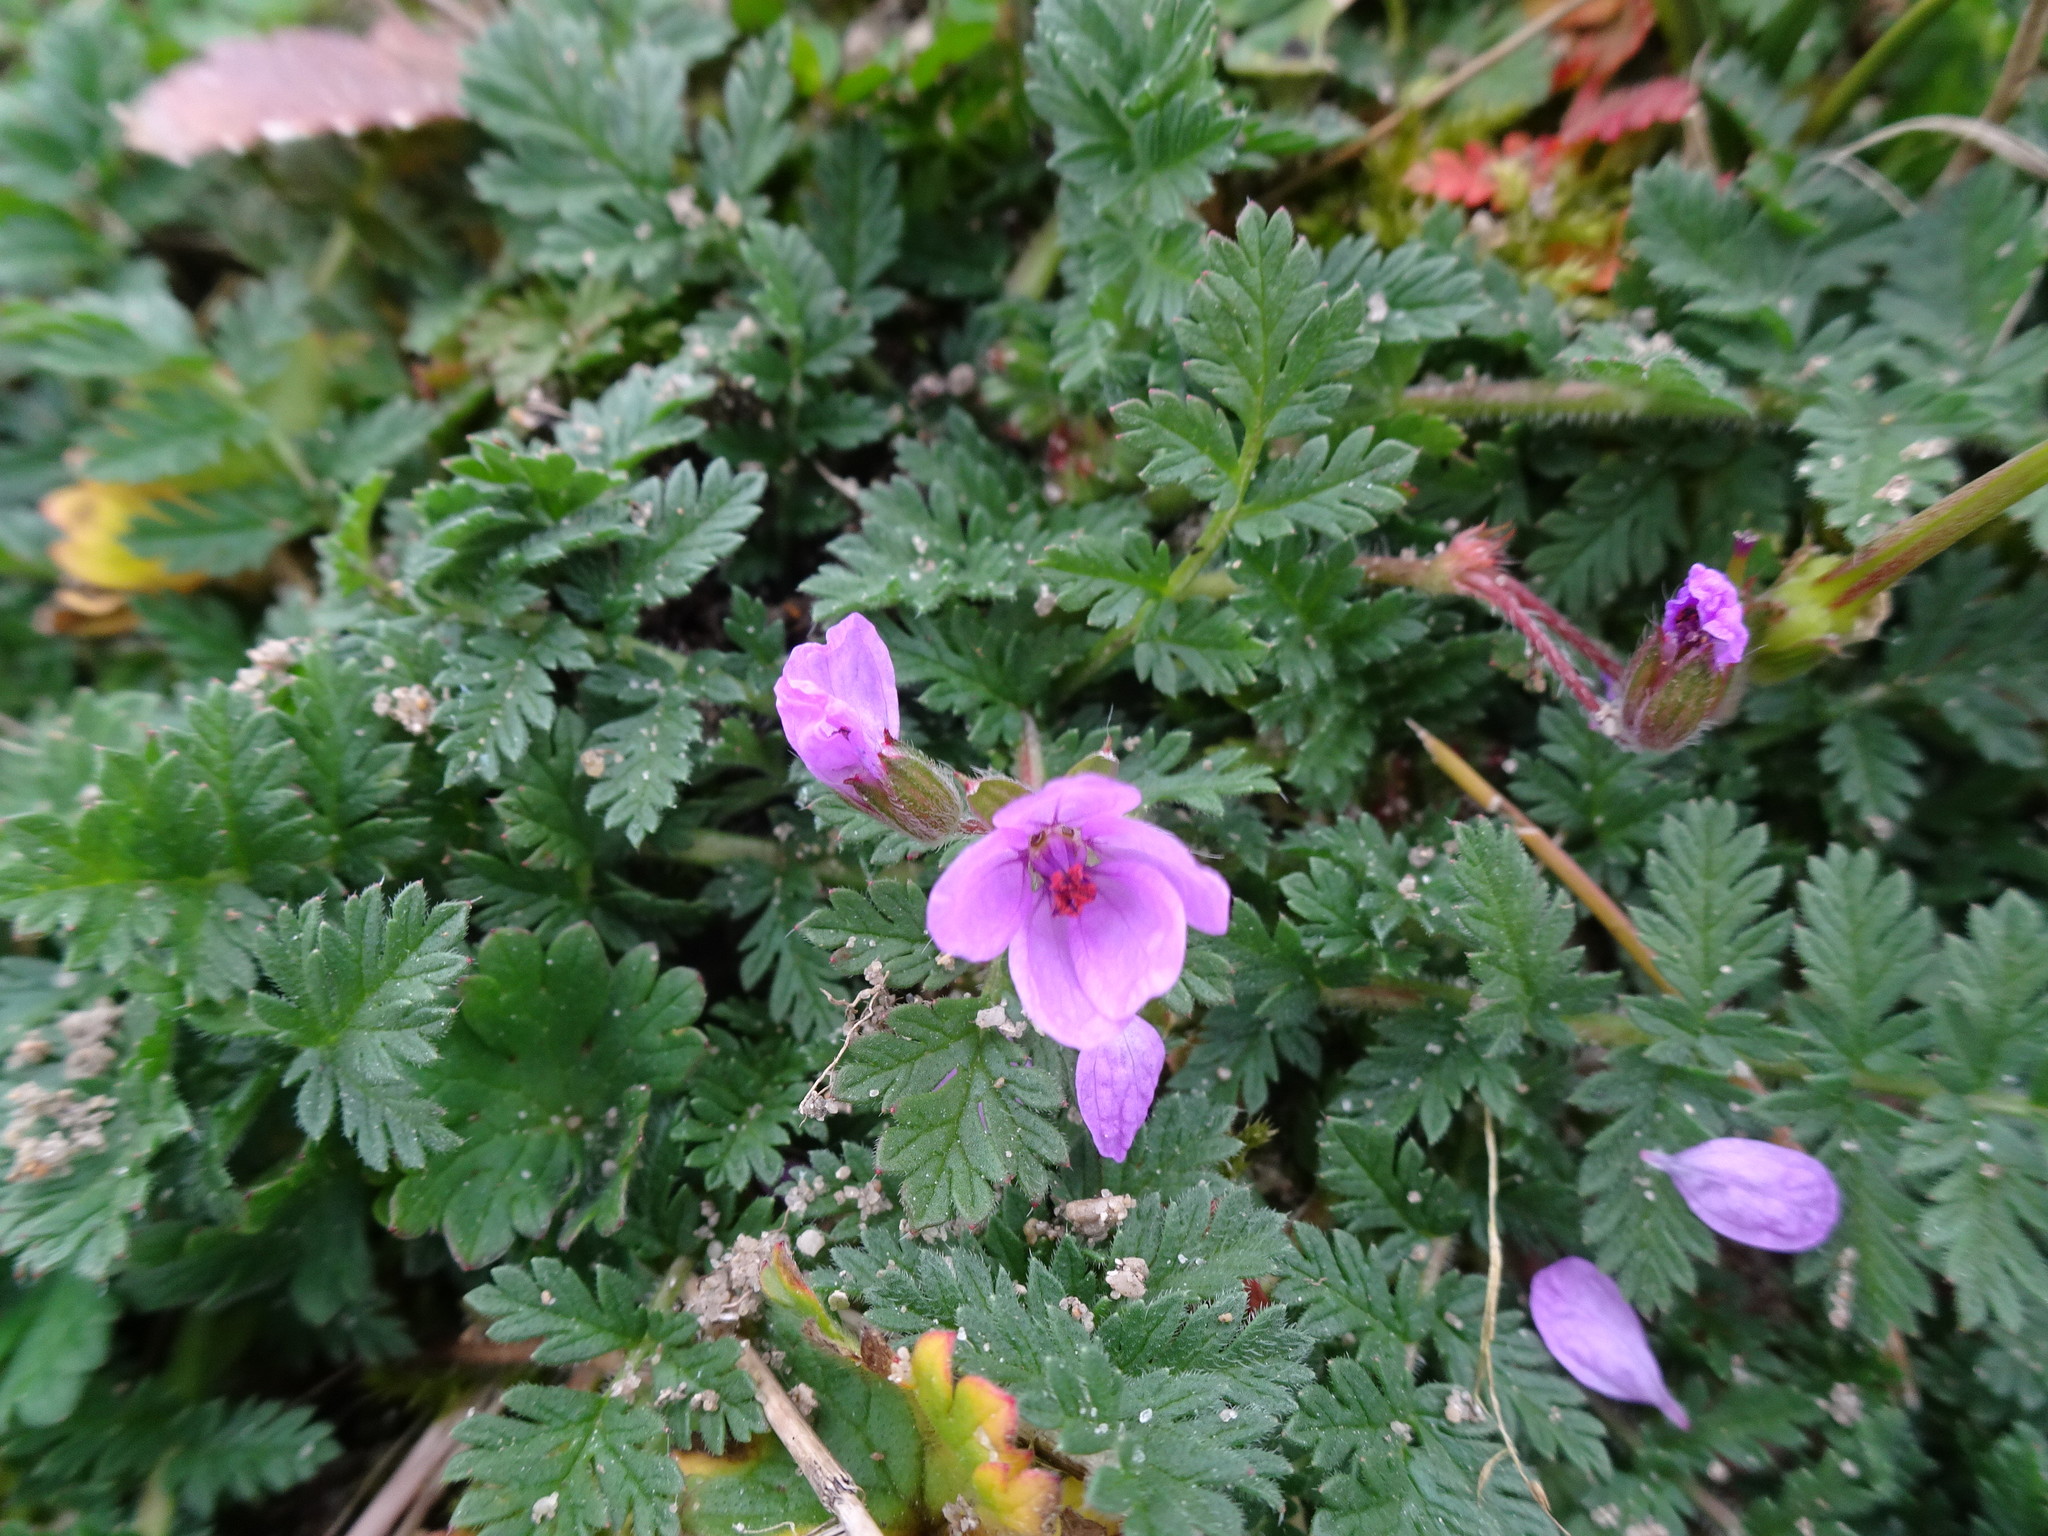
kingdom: Plantae
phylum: Tracheophyta
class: Magnoliopsida
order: Geraniales
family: Geraniaceae
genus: Erodium
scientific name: Erodium cicutarium
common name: Common stork's-bill
